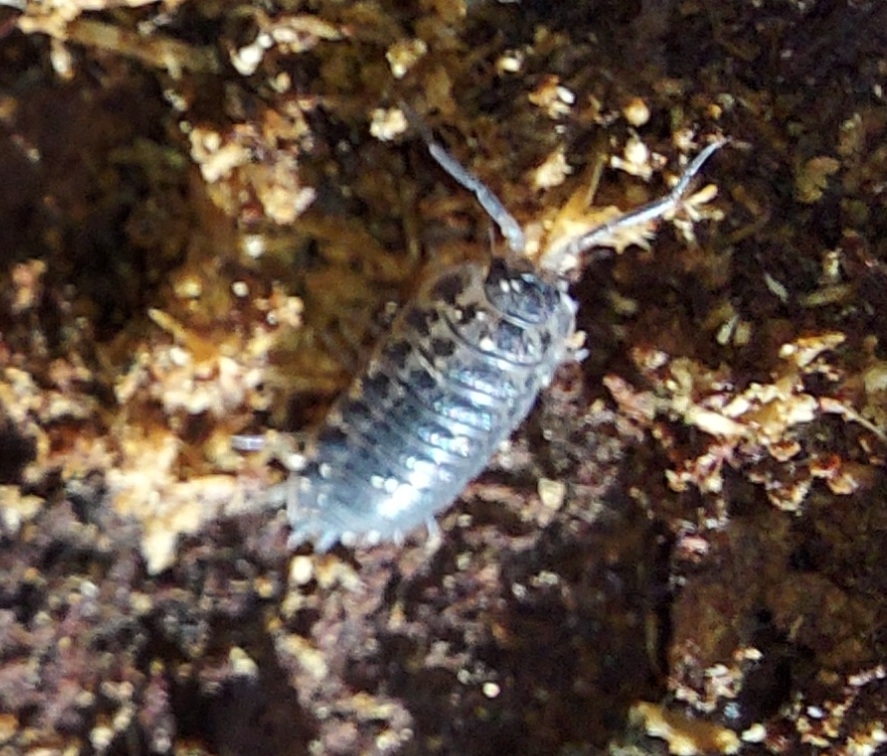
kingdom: Animalia
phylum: Arthropoda
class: Malacostraca
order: Isopoda
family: Trachelipodidae
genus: Trachelipus
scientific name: Trachelipus rathkii
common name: Isopod
